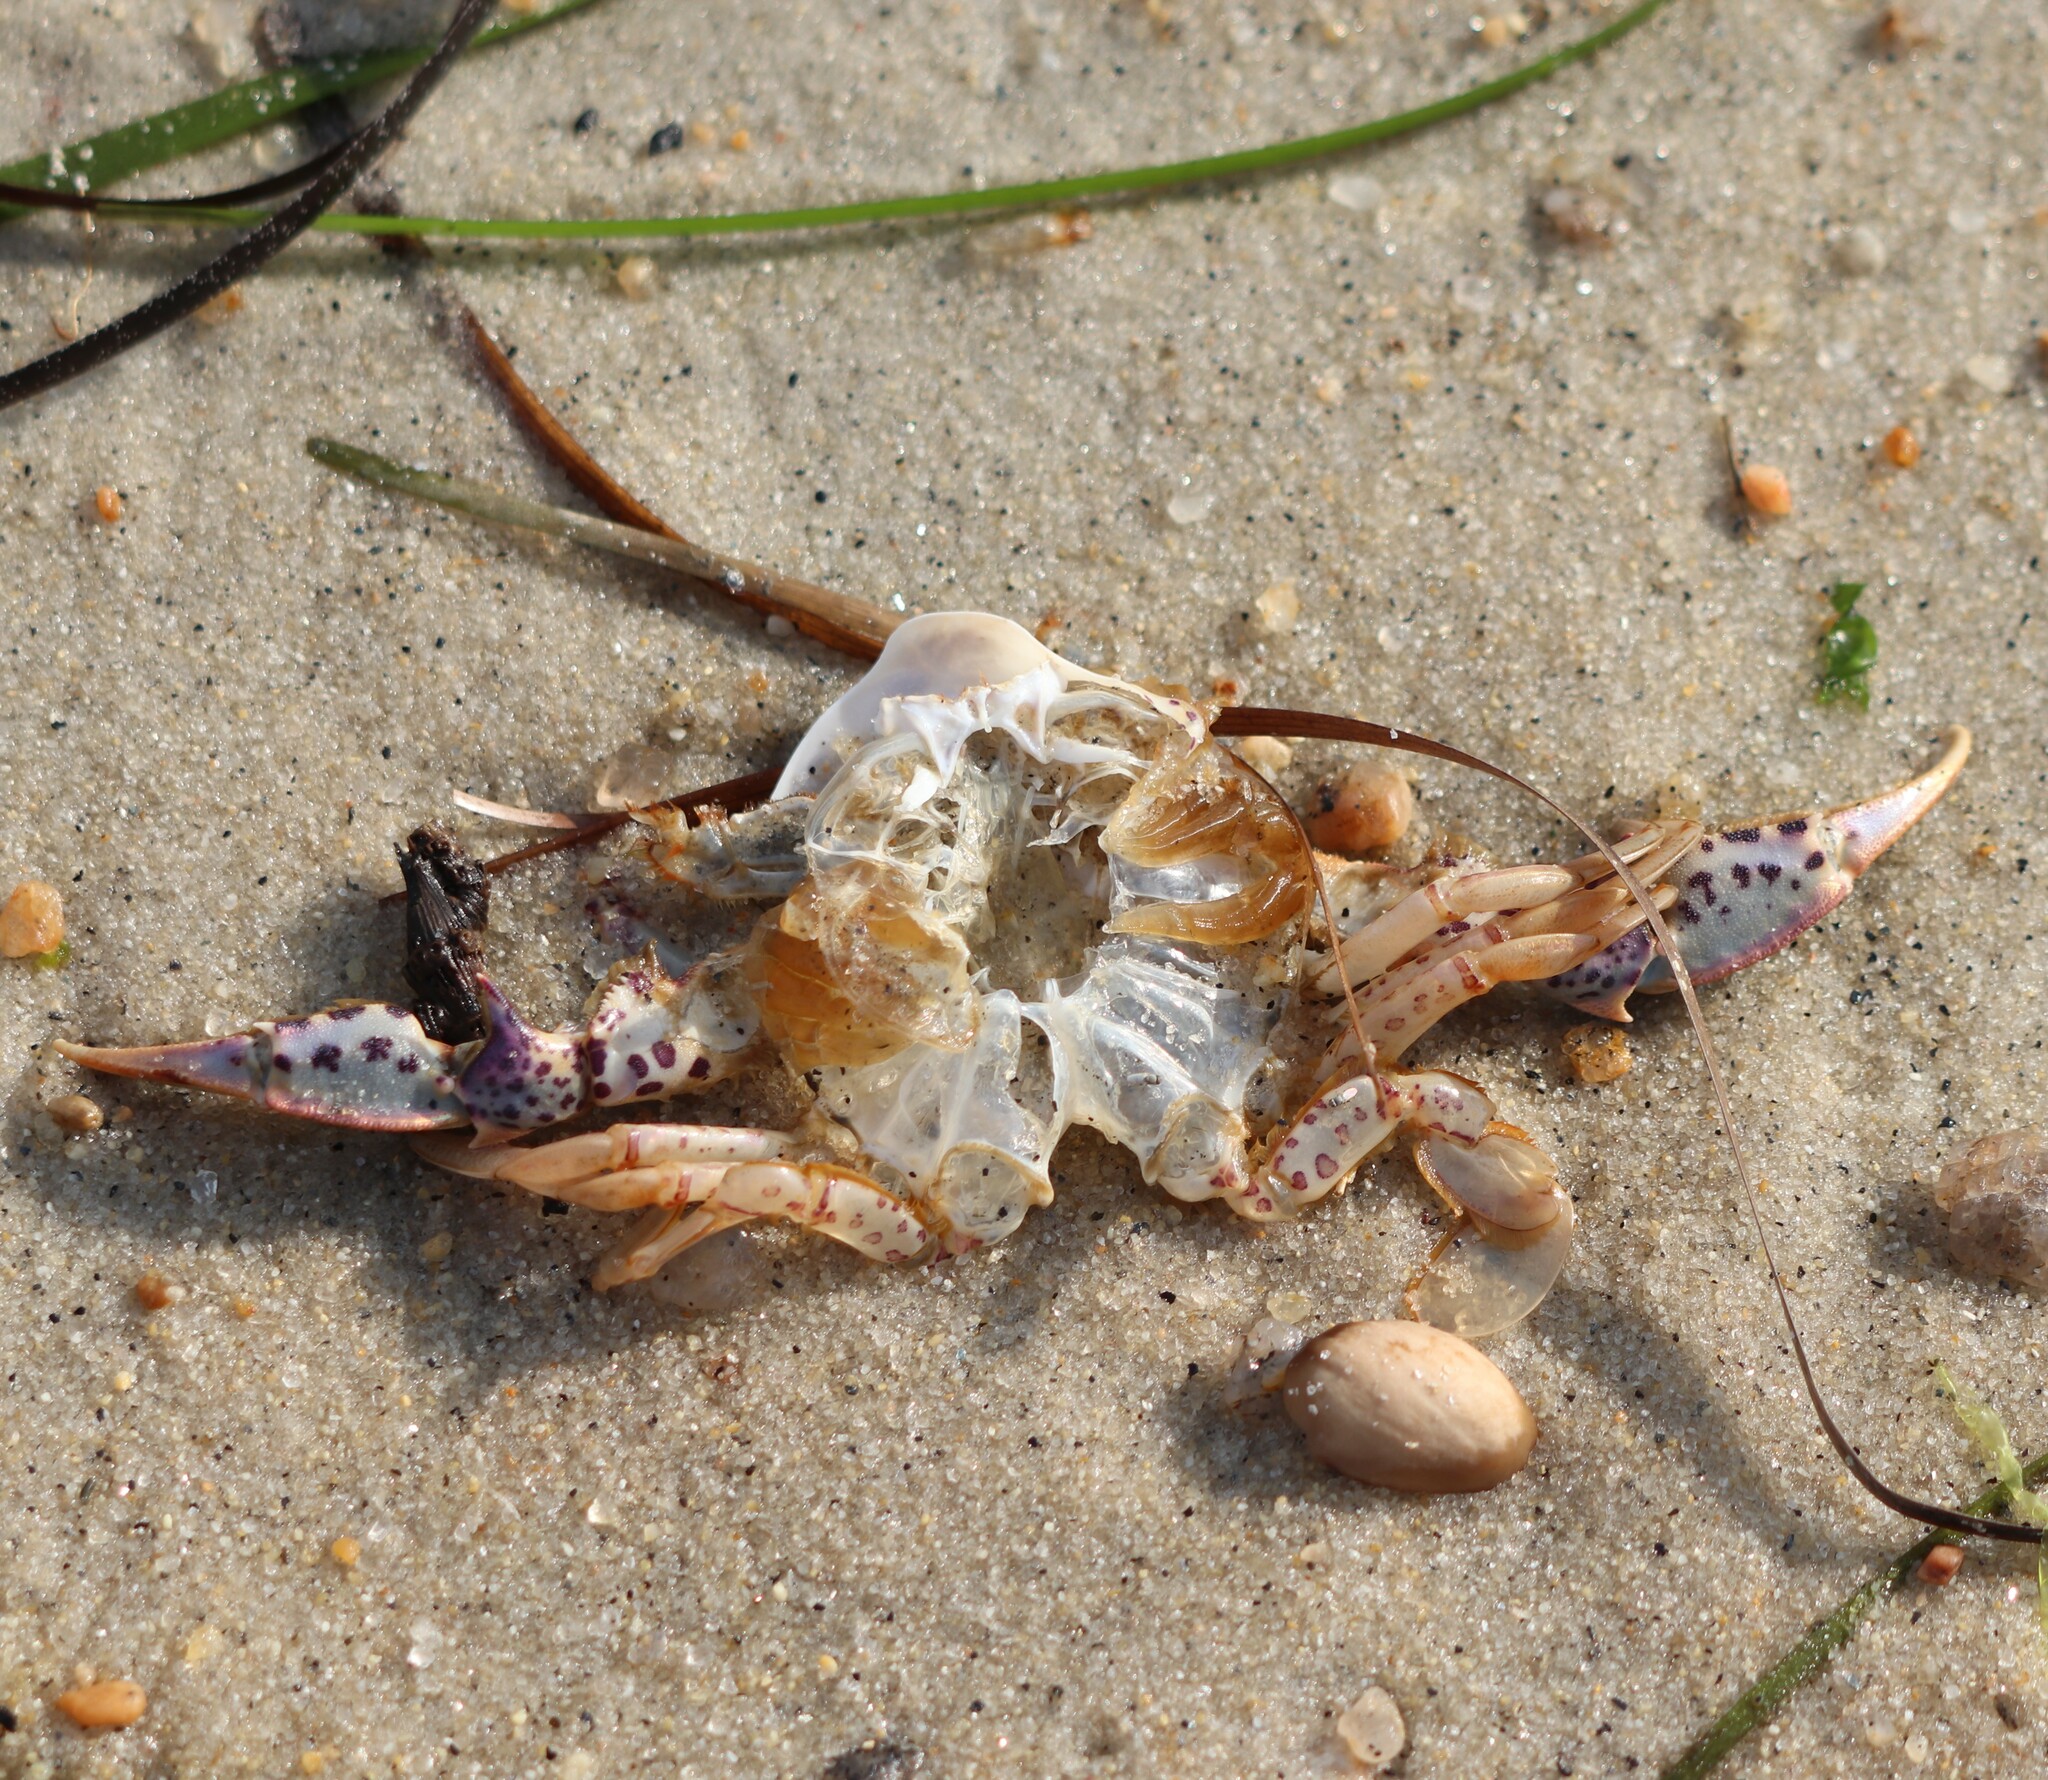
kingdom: Animalia
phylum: Arthropoda
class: Malacostraca
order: Decapoda
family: Ovalipidae
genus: Ovalipes
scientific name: Ovalipes ocellatus
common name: Lady crab
